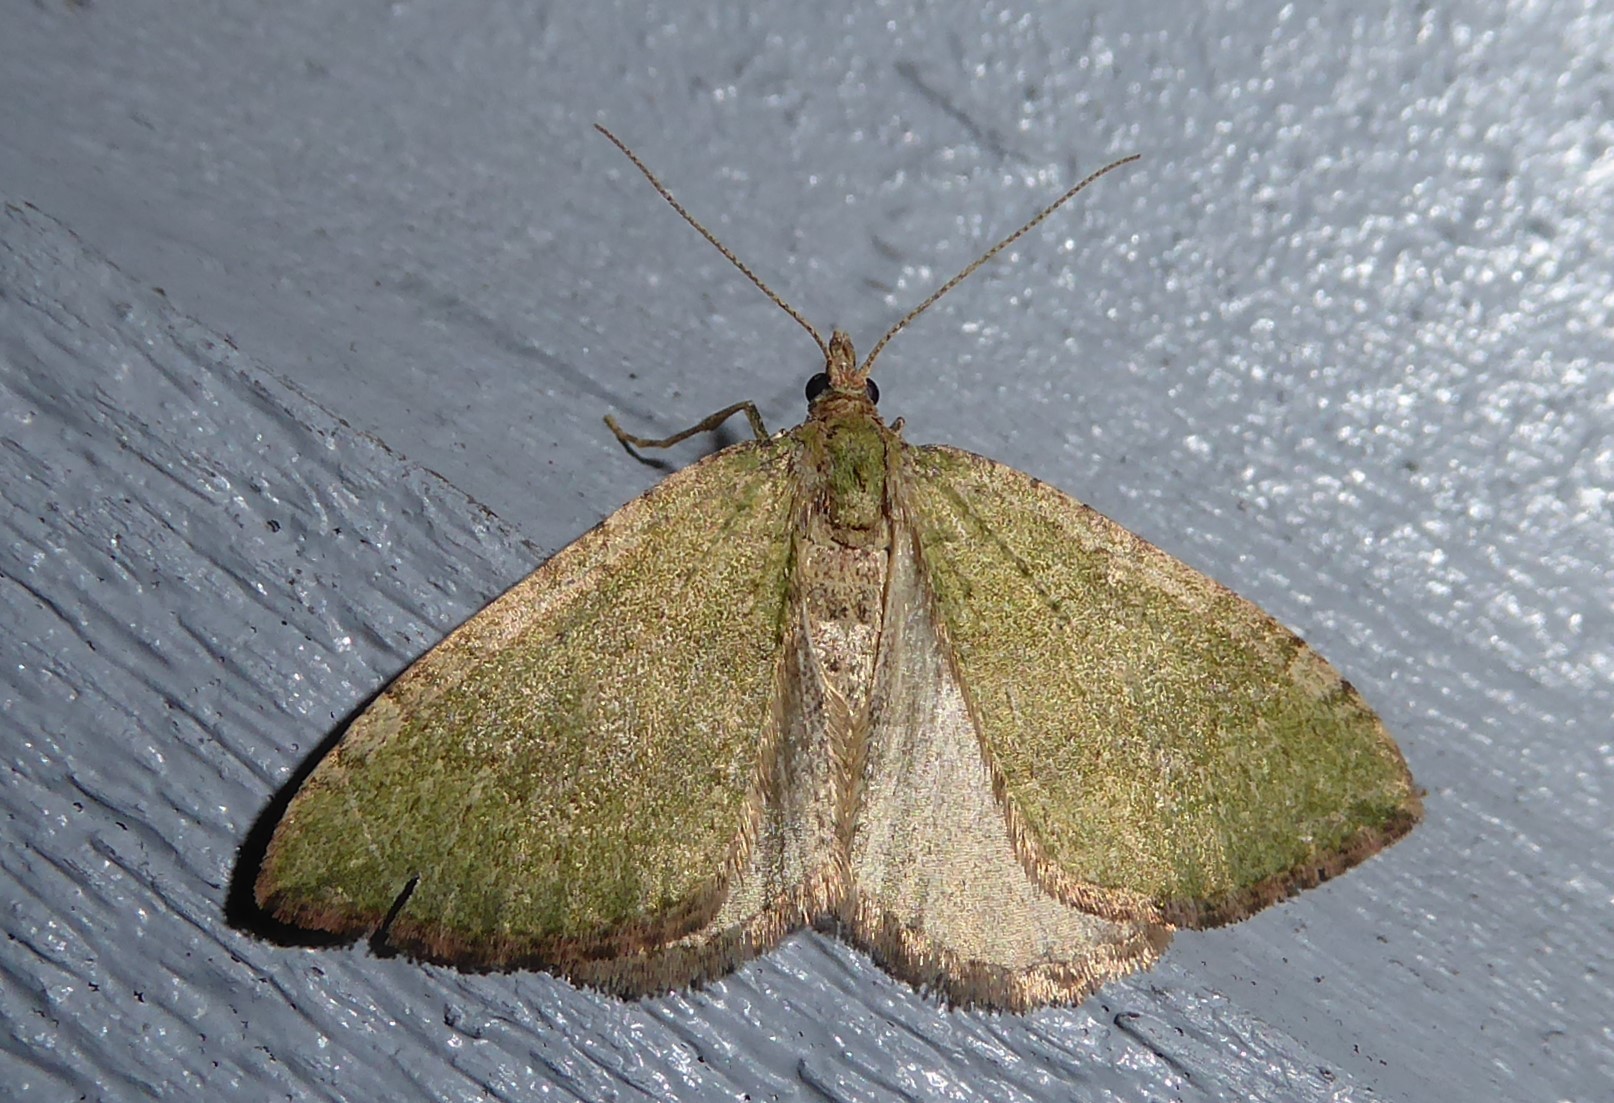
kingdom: Animalia
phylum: Arthropoda
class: Insecta
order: Lepidoptera
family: Geometridae
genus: Epyaxa
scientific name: Epyaxa rosearia
